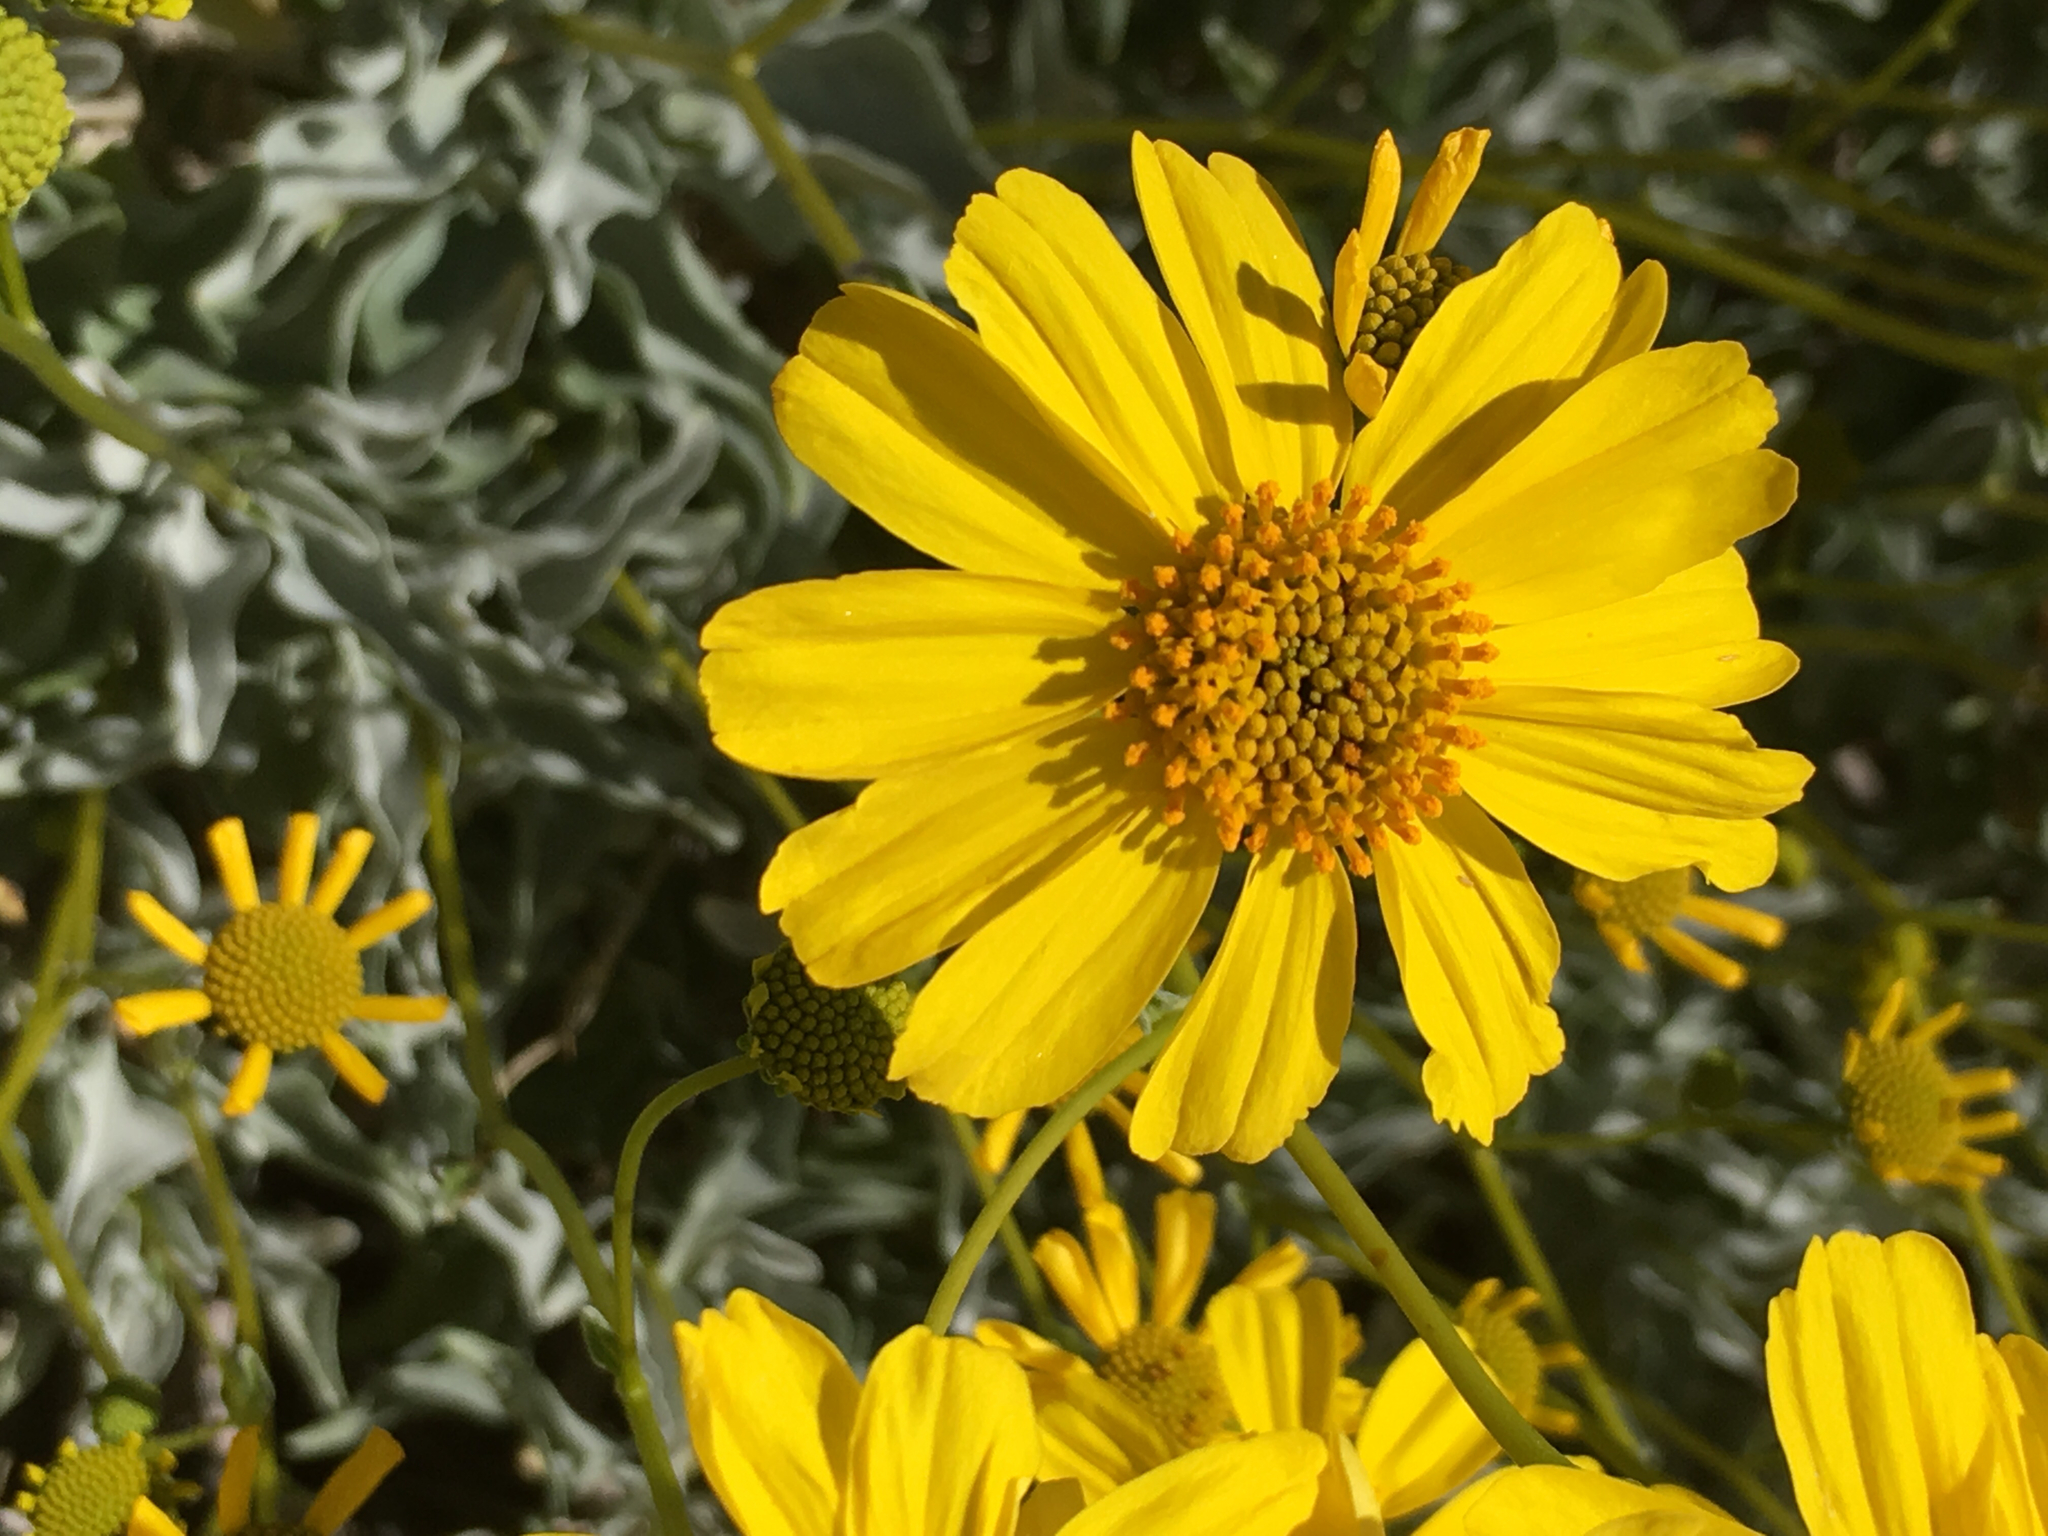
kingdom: Plantae
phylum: Tracheophyta
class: Magnoliopsida
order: Asterales
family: Asteraceae
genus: Encelia
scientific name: Encelia farinosa
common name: Brittlebush
